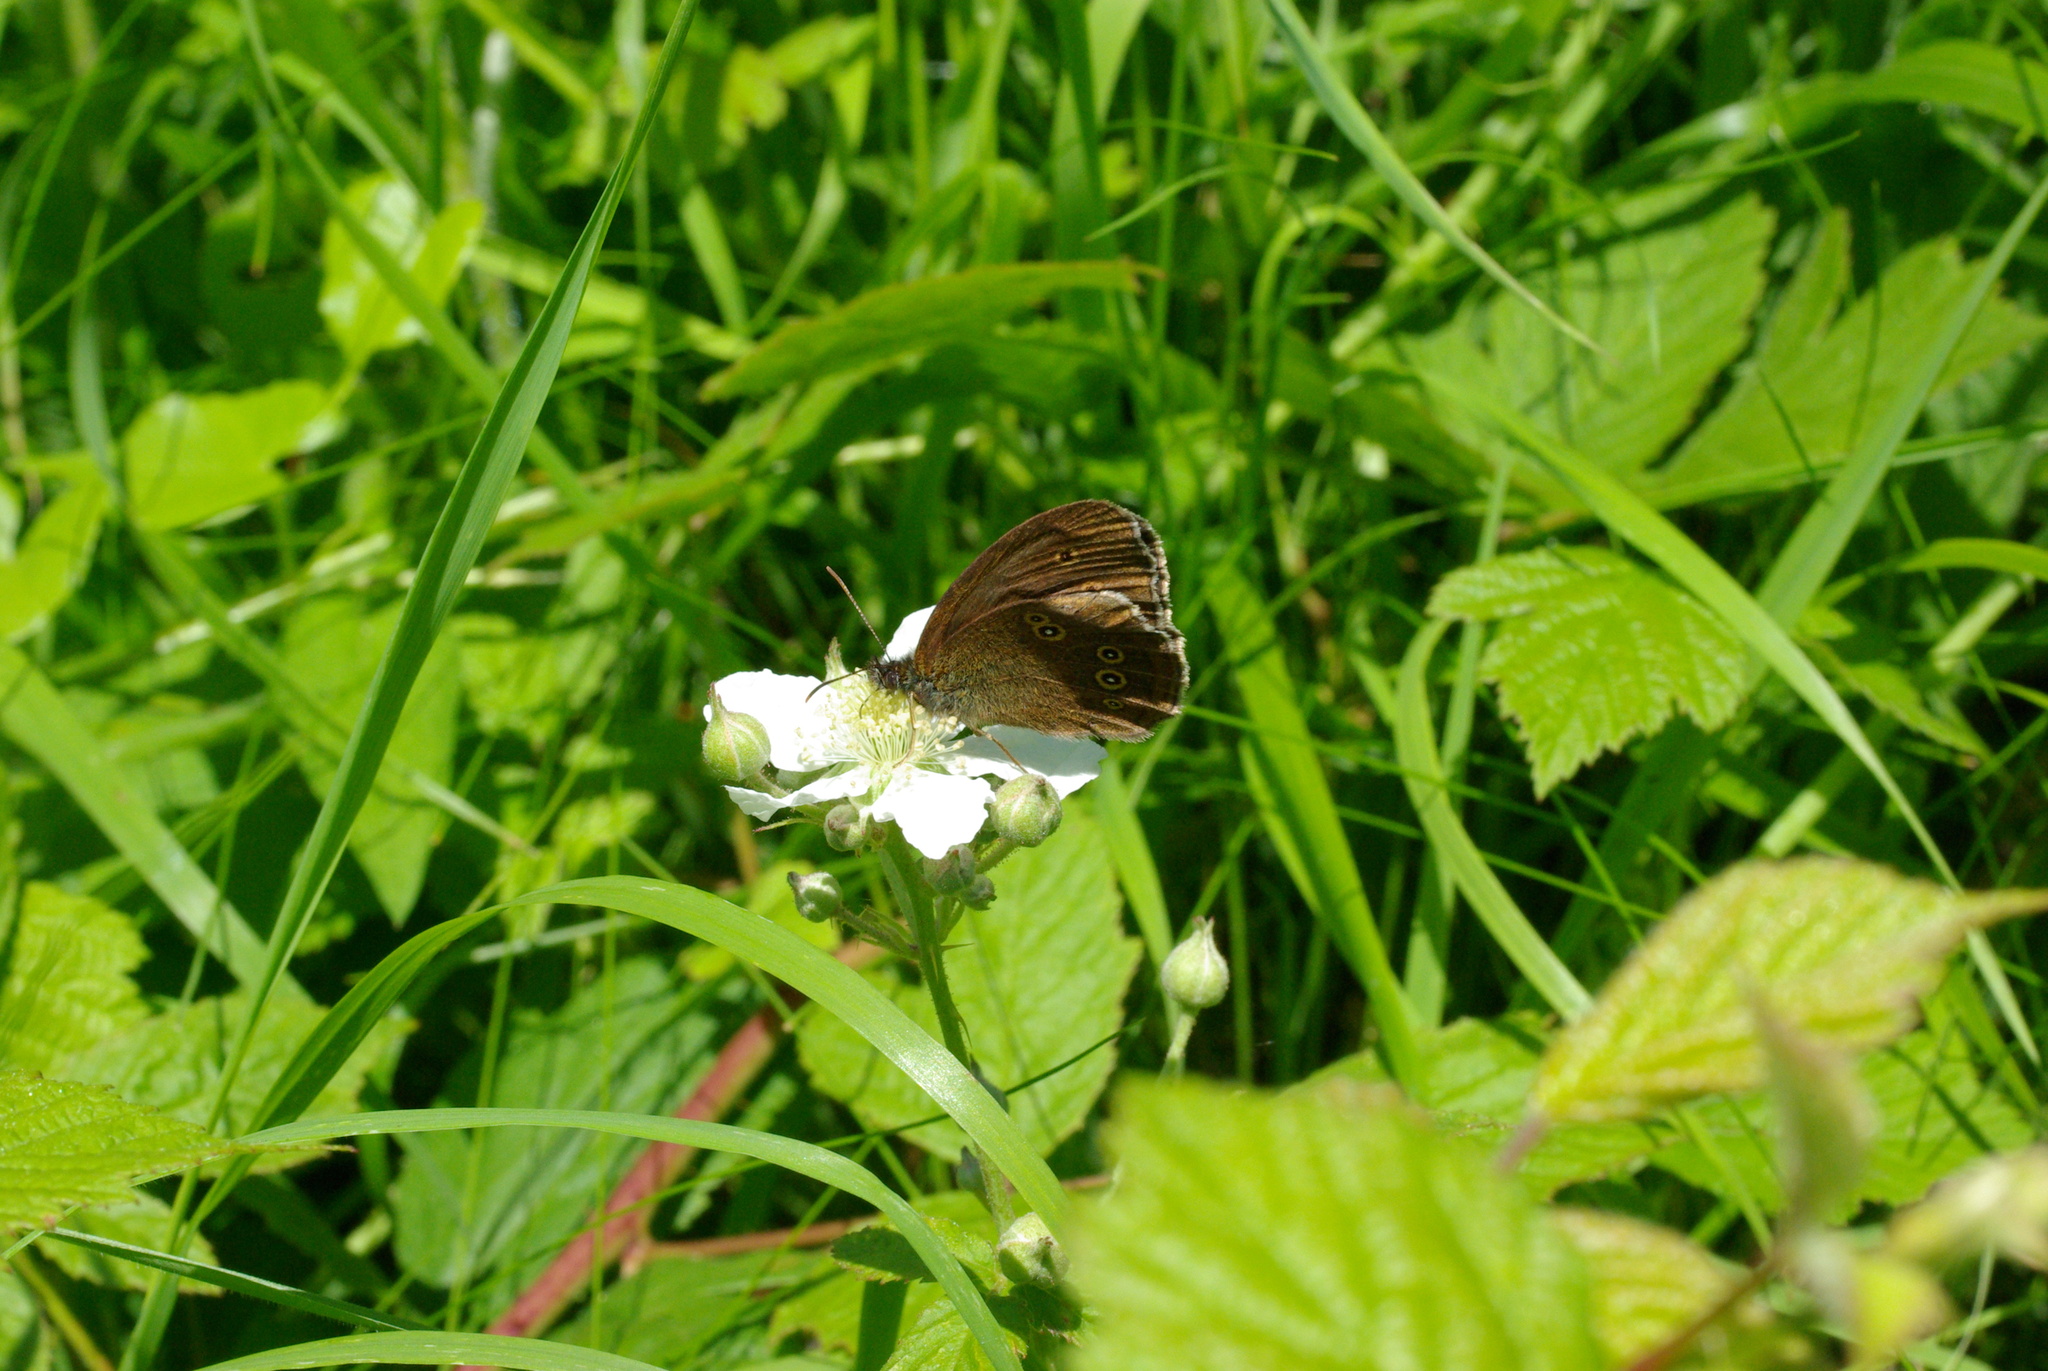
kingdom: Animalia
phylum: Arthropoda
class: Insecta
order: Lepidoptera
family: Nymphalidae
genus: Aphantopus
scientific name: Aphantopus hyperantus
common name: Ringlet
